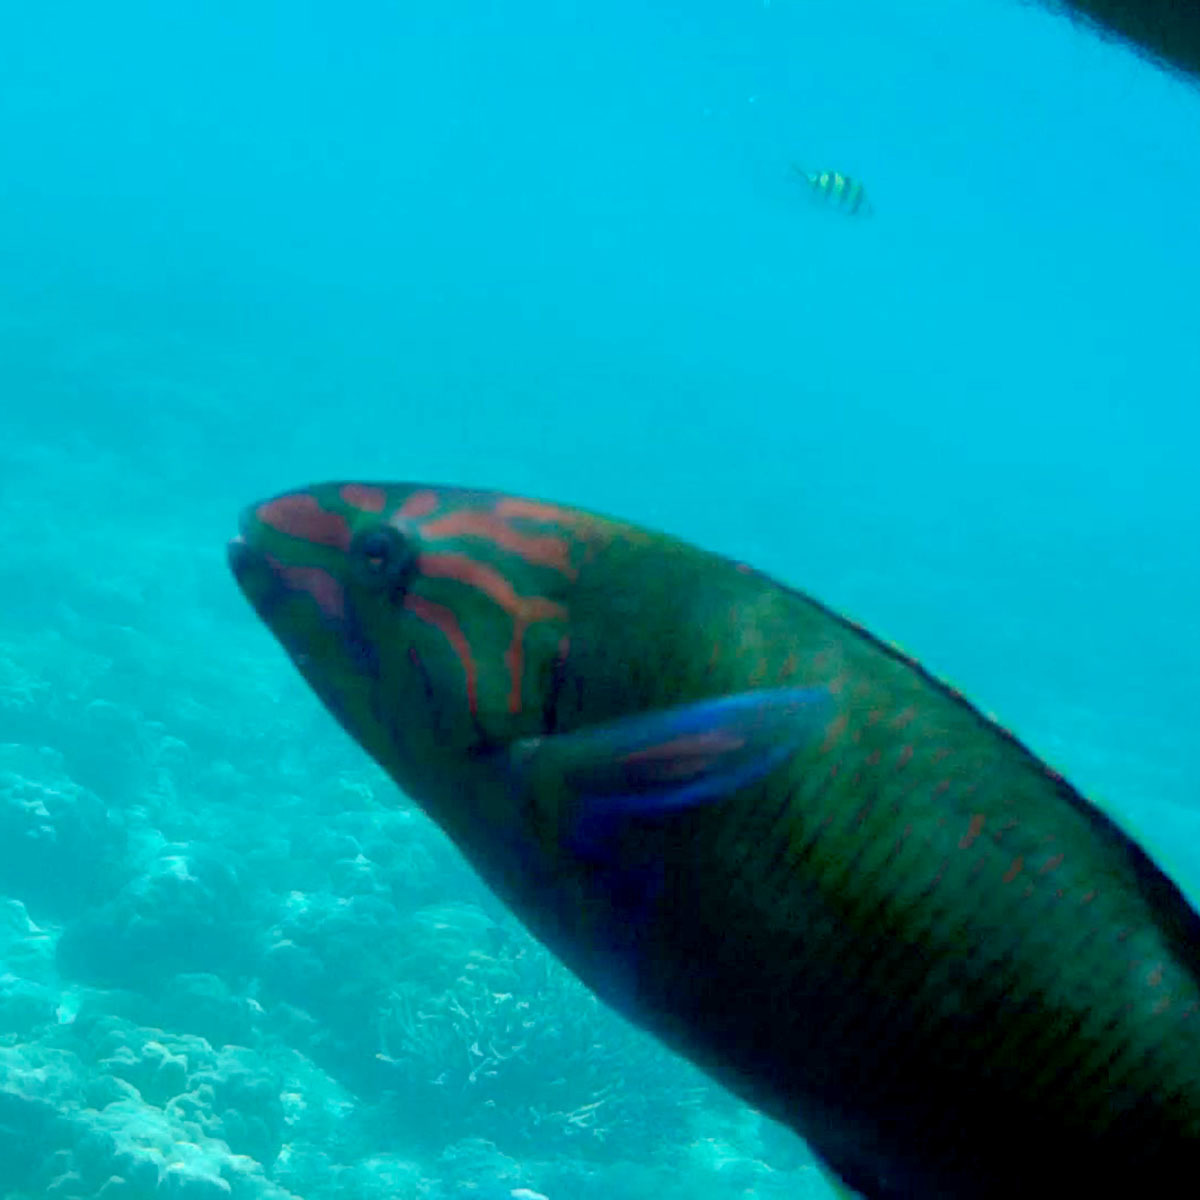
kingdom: Animalia
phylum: Chordata
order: Perciformes
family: Labridae
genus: Thalassoma
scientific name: Thalassoma lunare
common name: Blue wrasse
